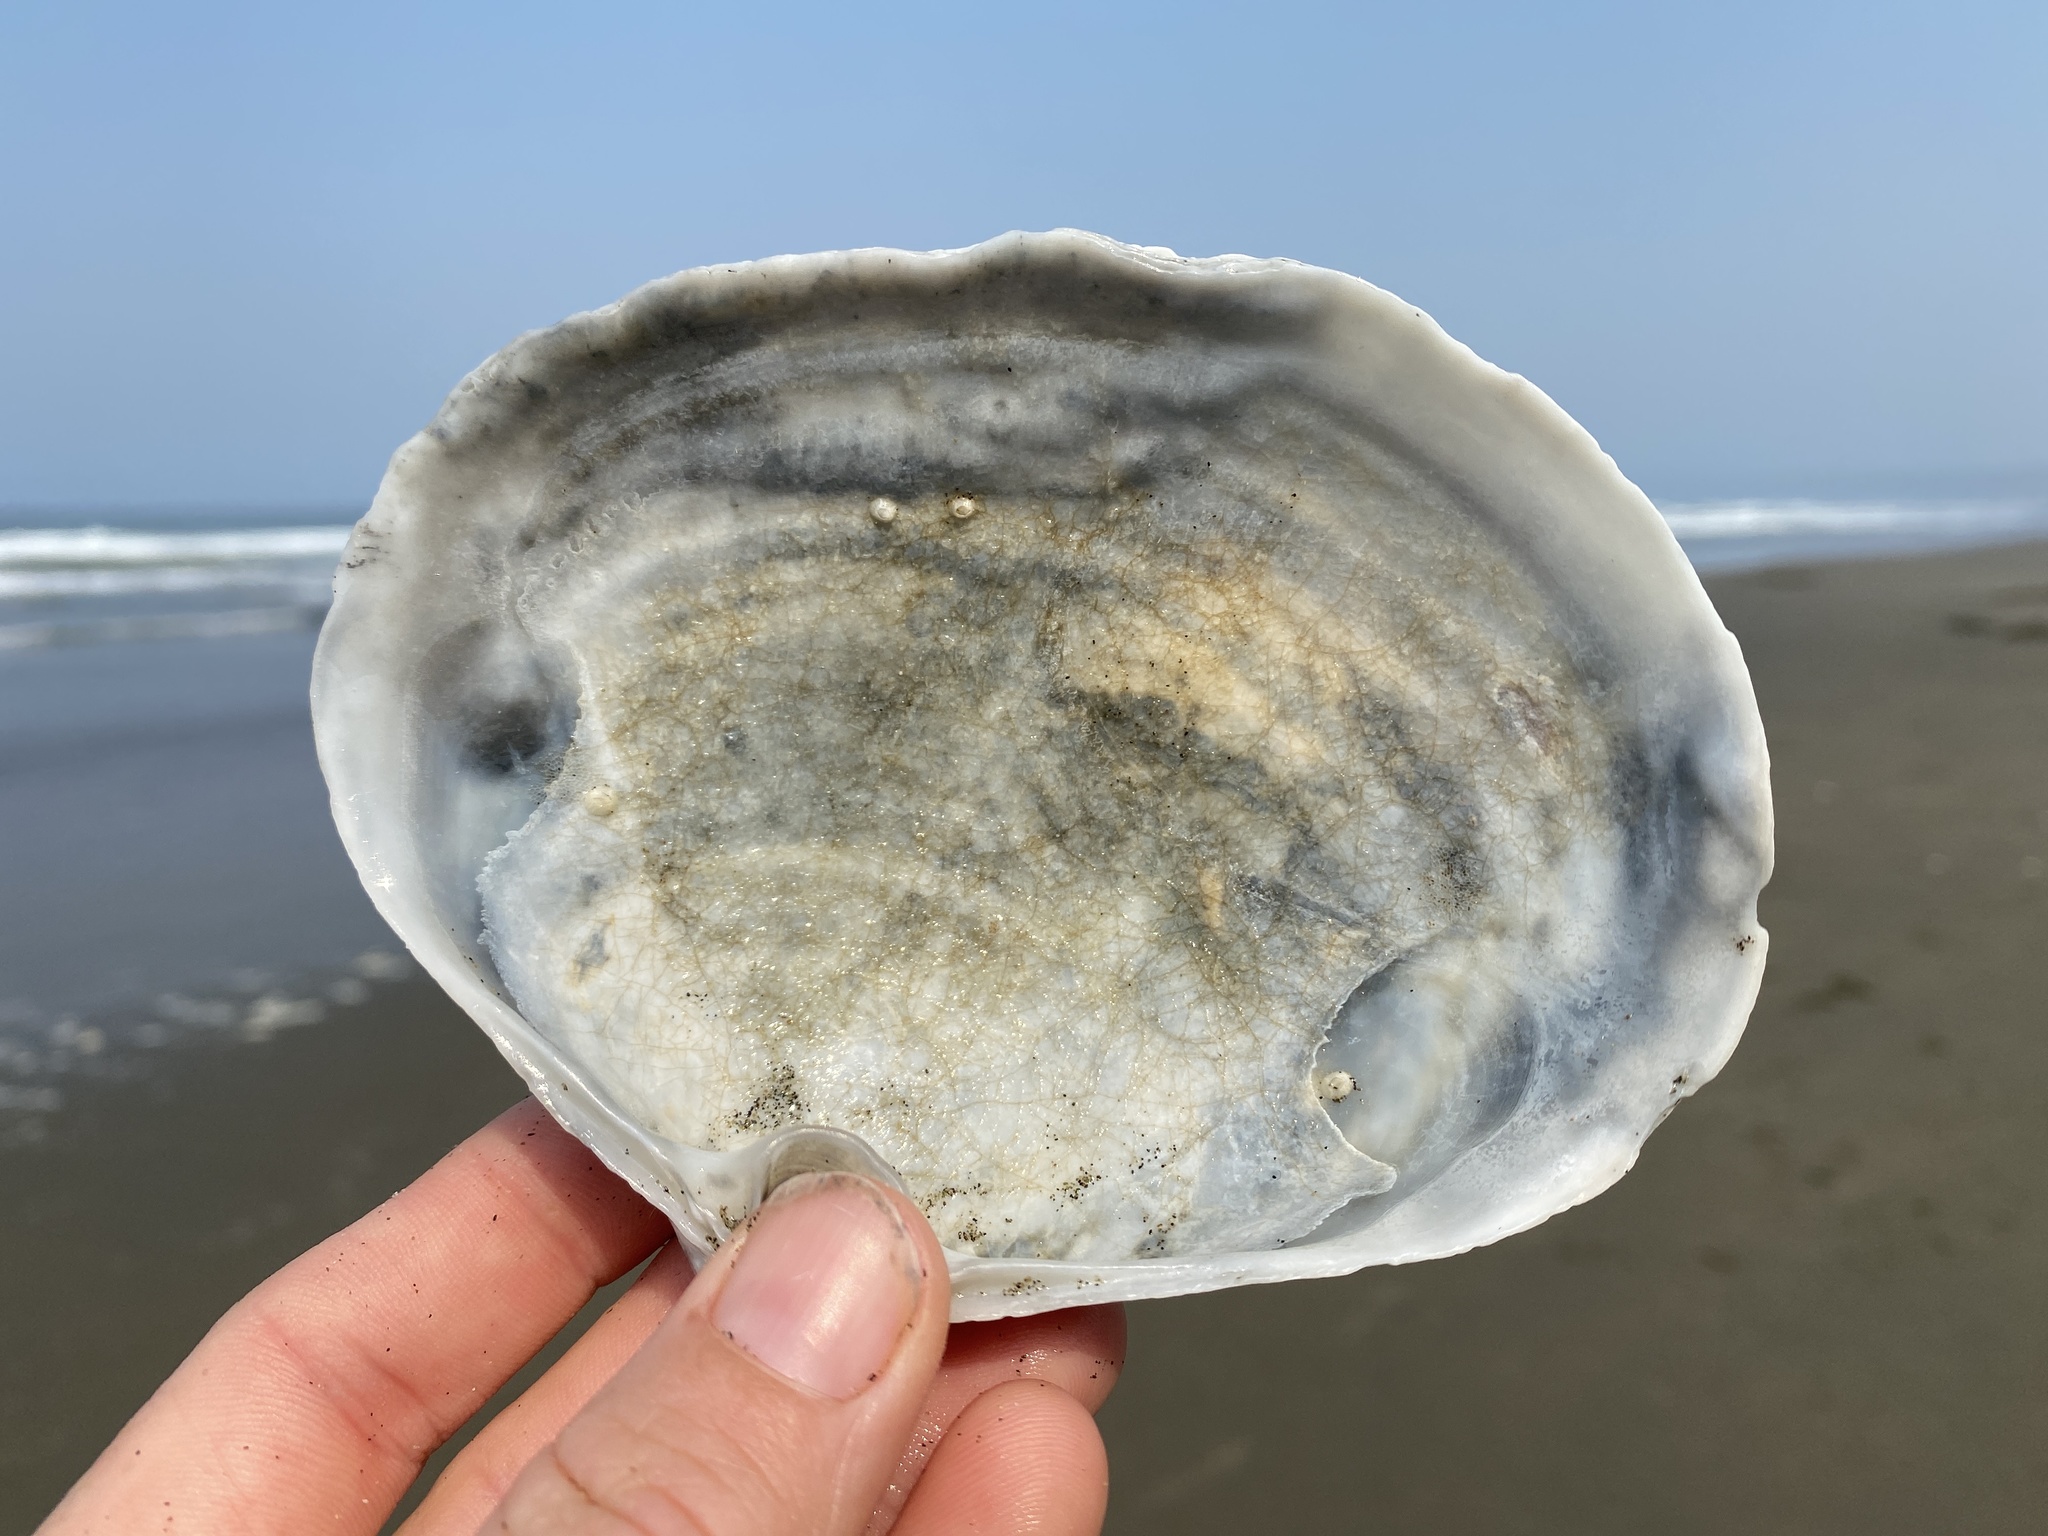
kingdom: Animalia
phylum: Mollusca
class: Bivalvia
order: Venerida
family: Mactridae
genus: Mactromeris
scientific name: Mactromeris catilliformis
